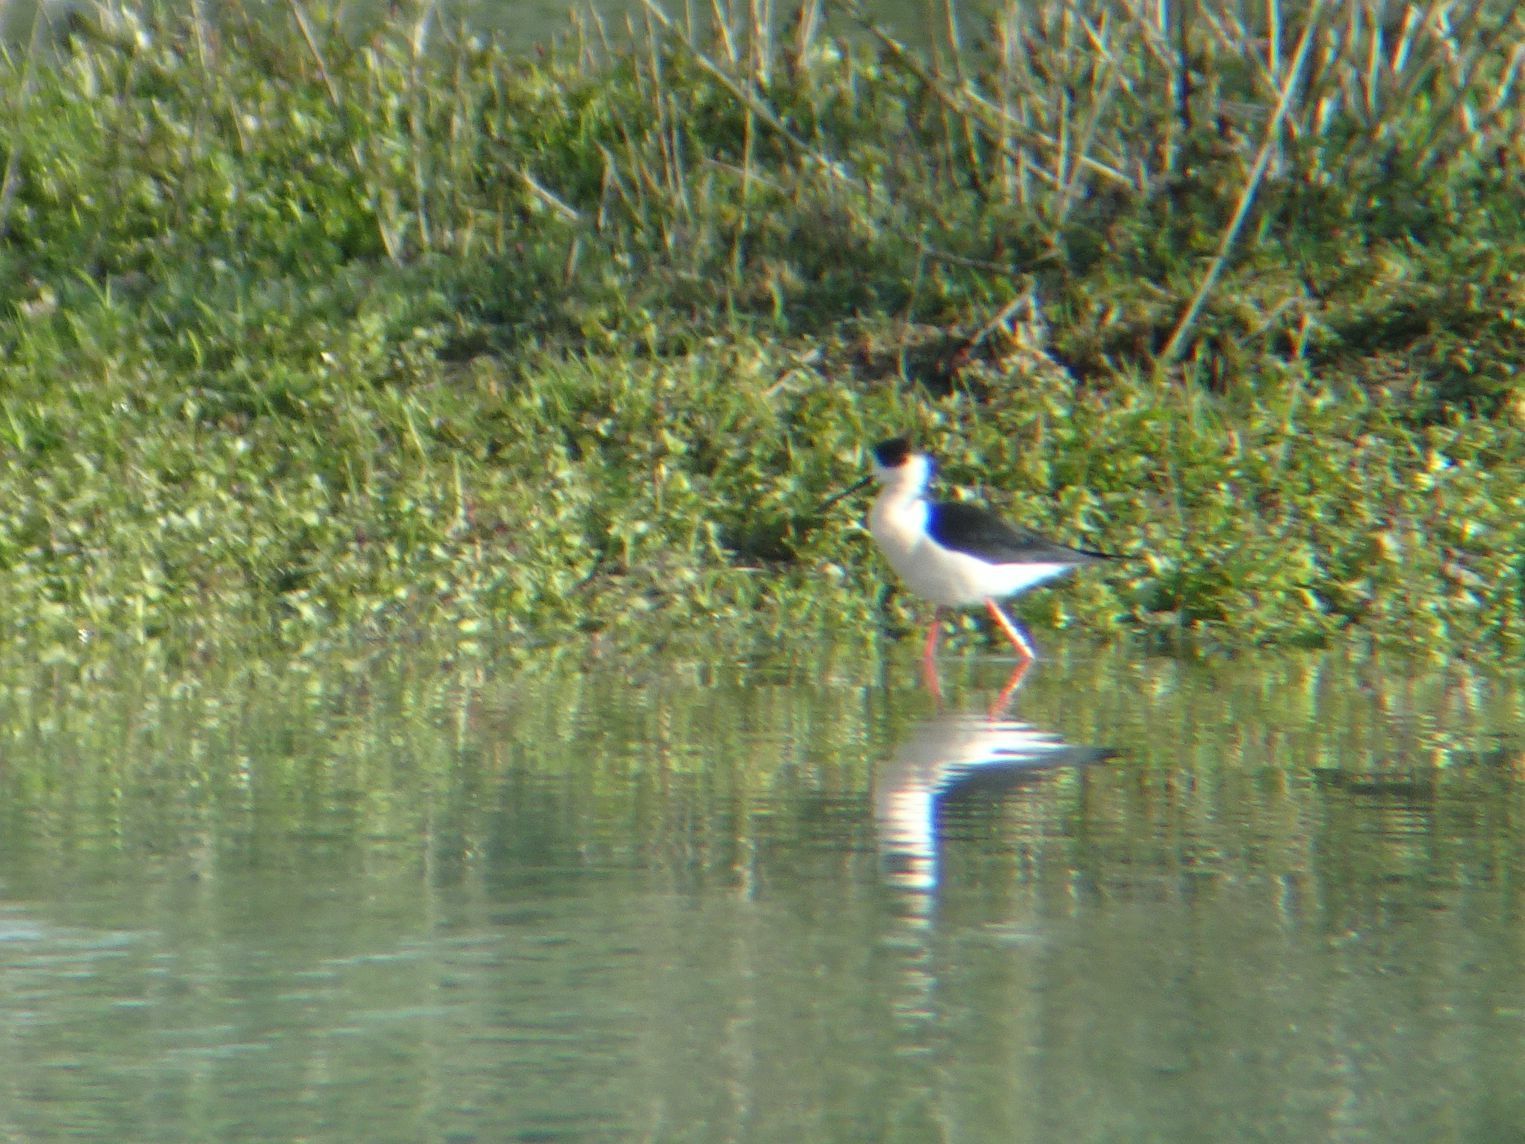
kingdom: Animalia
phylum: Chordata
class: Aves
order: Charadriiformes
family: Recurvirostridae
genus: Himantopus
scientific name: Himantopus himantopus
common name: Black-winged stilt
